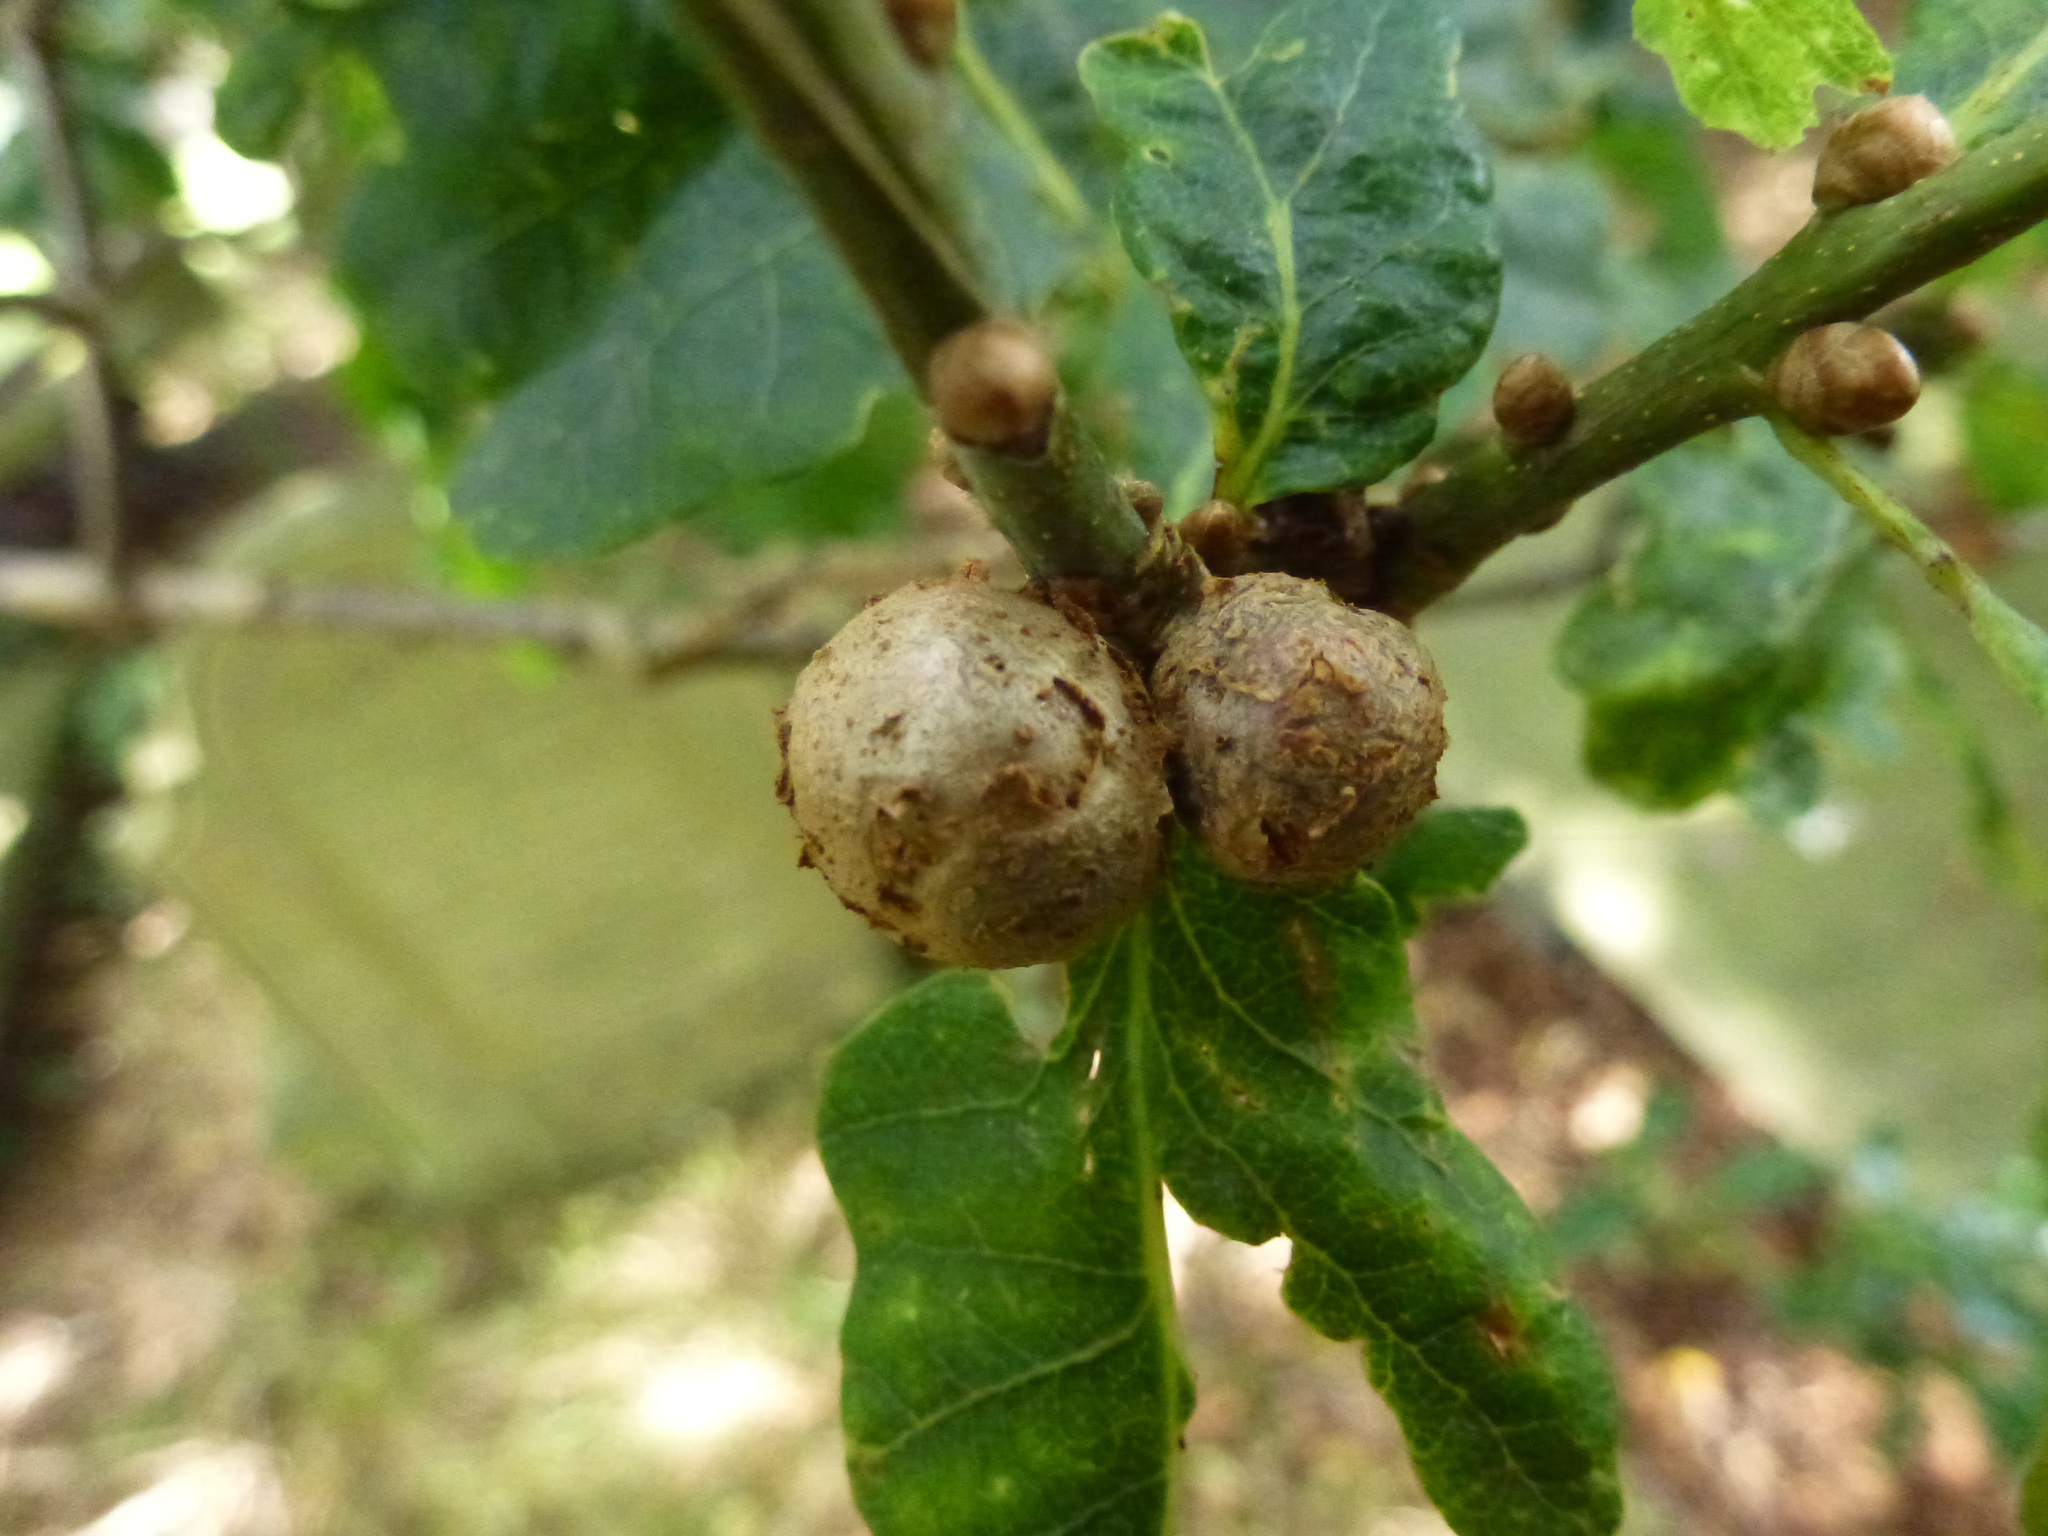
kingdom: Animalia
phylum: Arthropoda
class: Insecta
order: Hymenoptera
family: Cynipidae
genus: Andricus
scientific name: Andricus lignicolus
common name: Cola-nut gall
